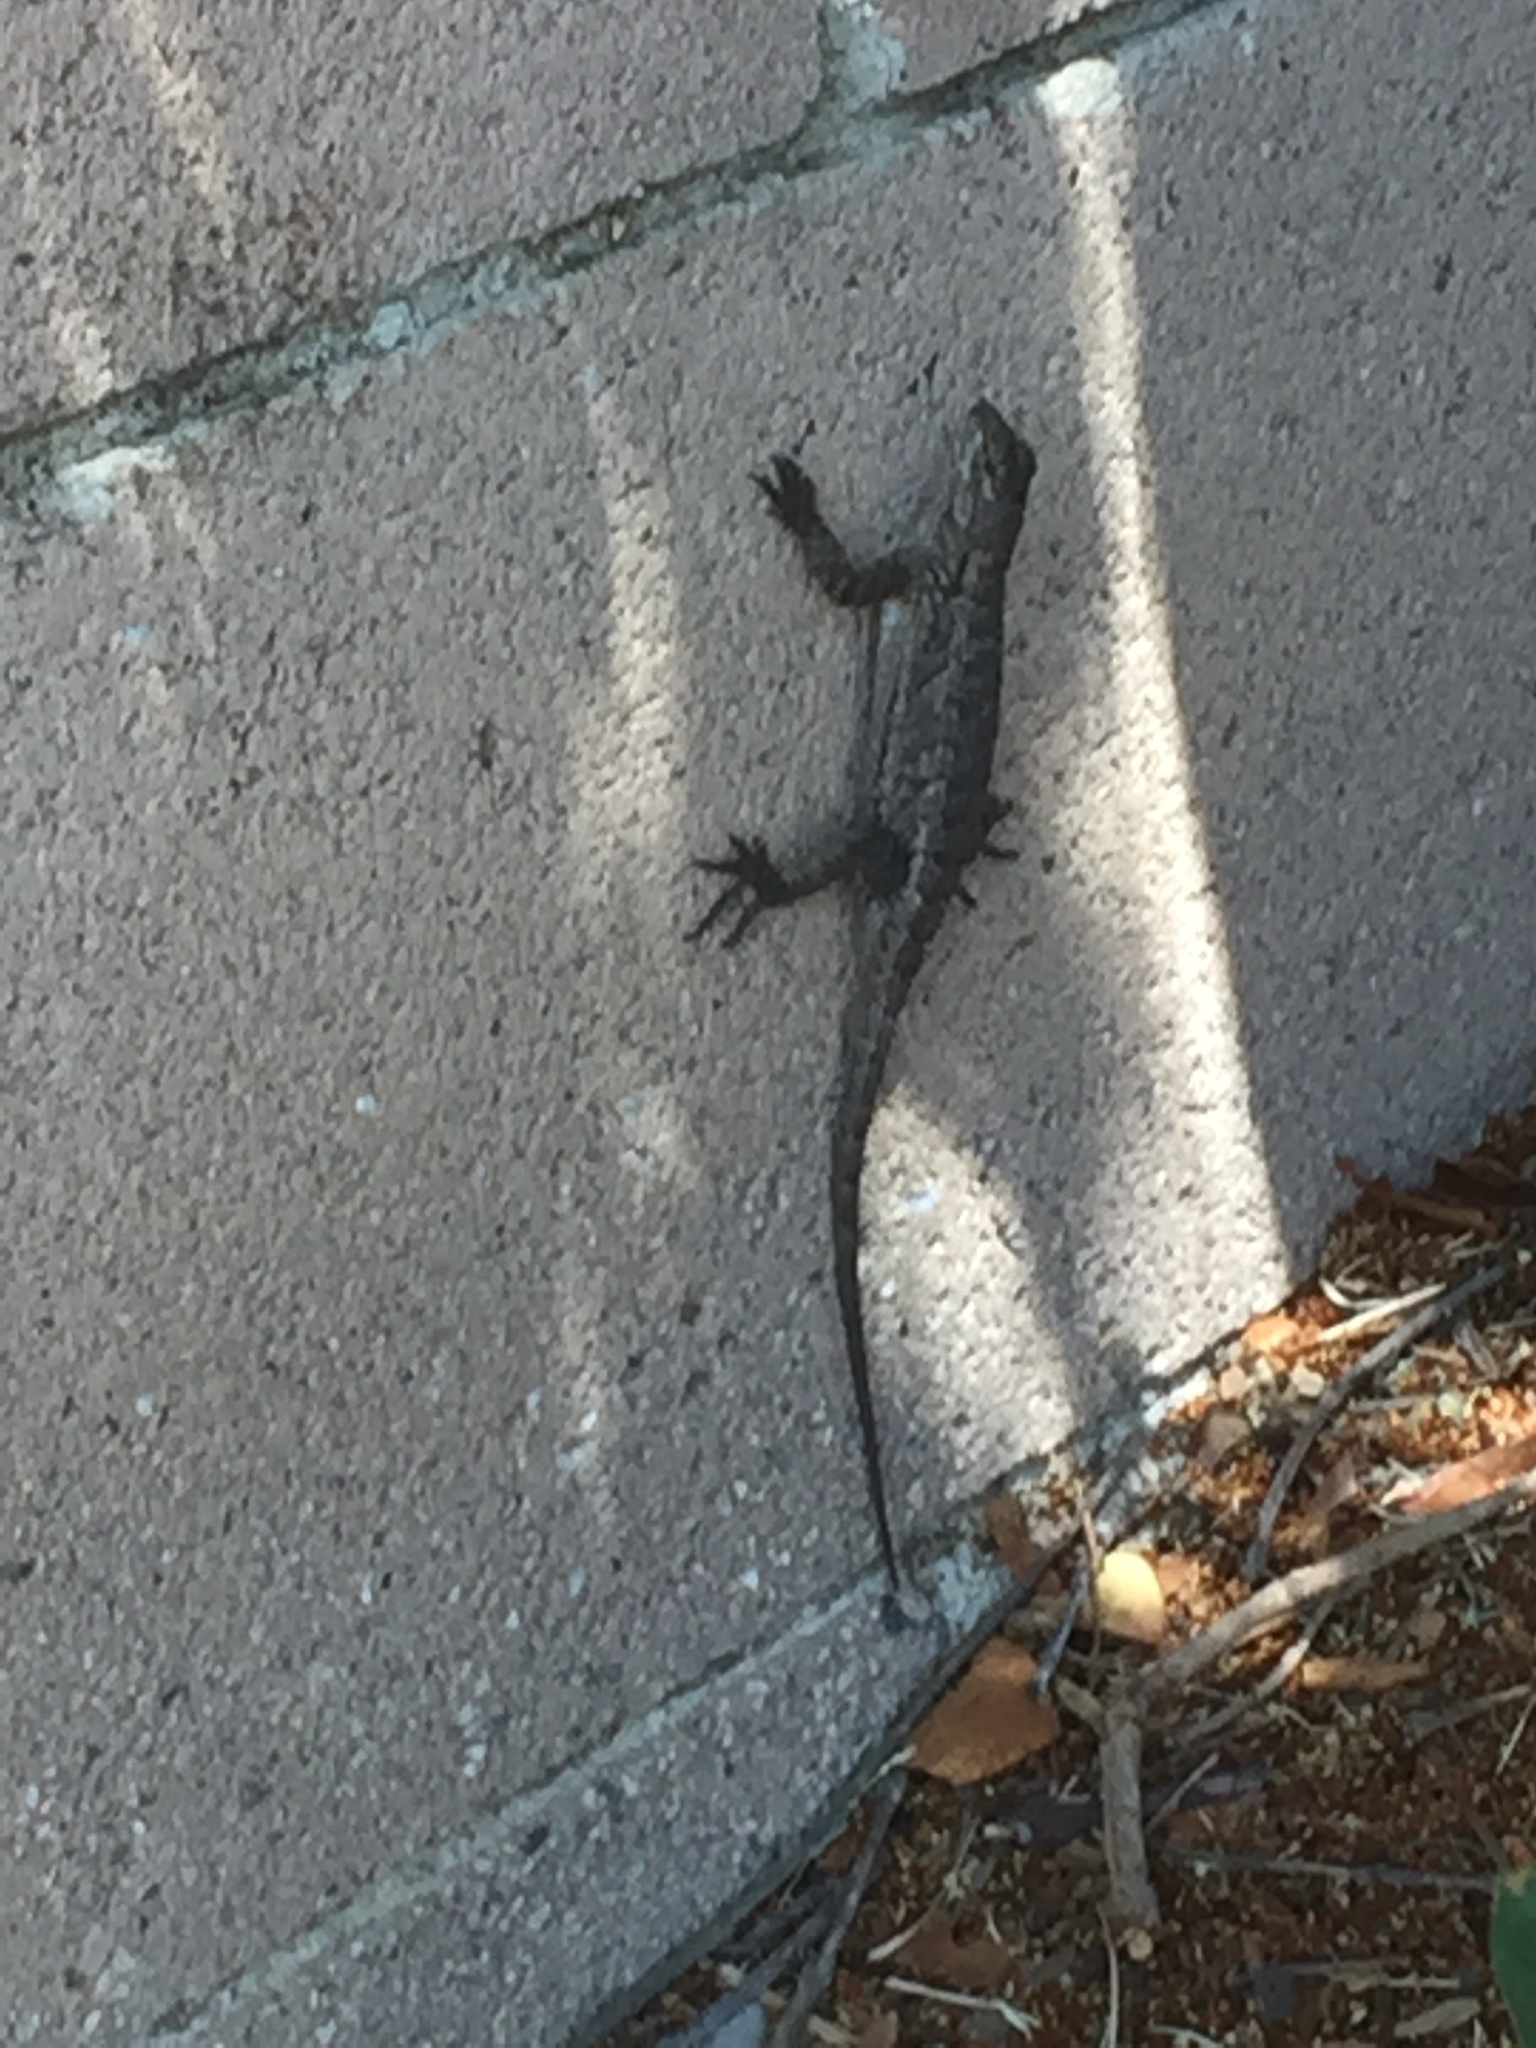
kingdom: Animalia
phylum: Chordata
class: Squamata
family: Phrynosomatidae
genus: Sceloporus
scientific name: Sceloporus occidentalis
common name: Western fence lizard
